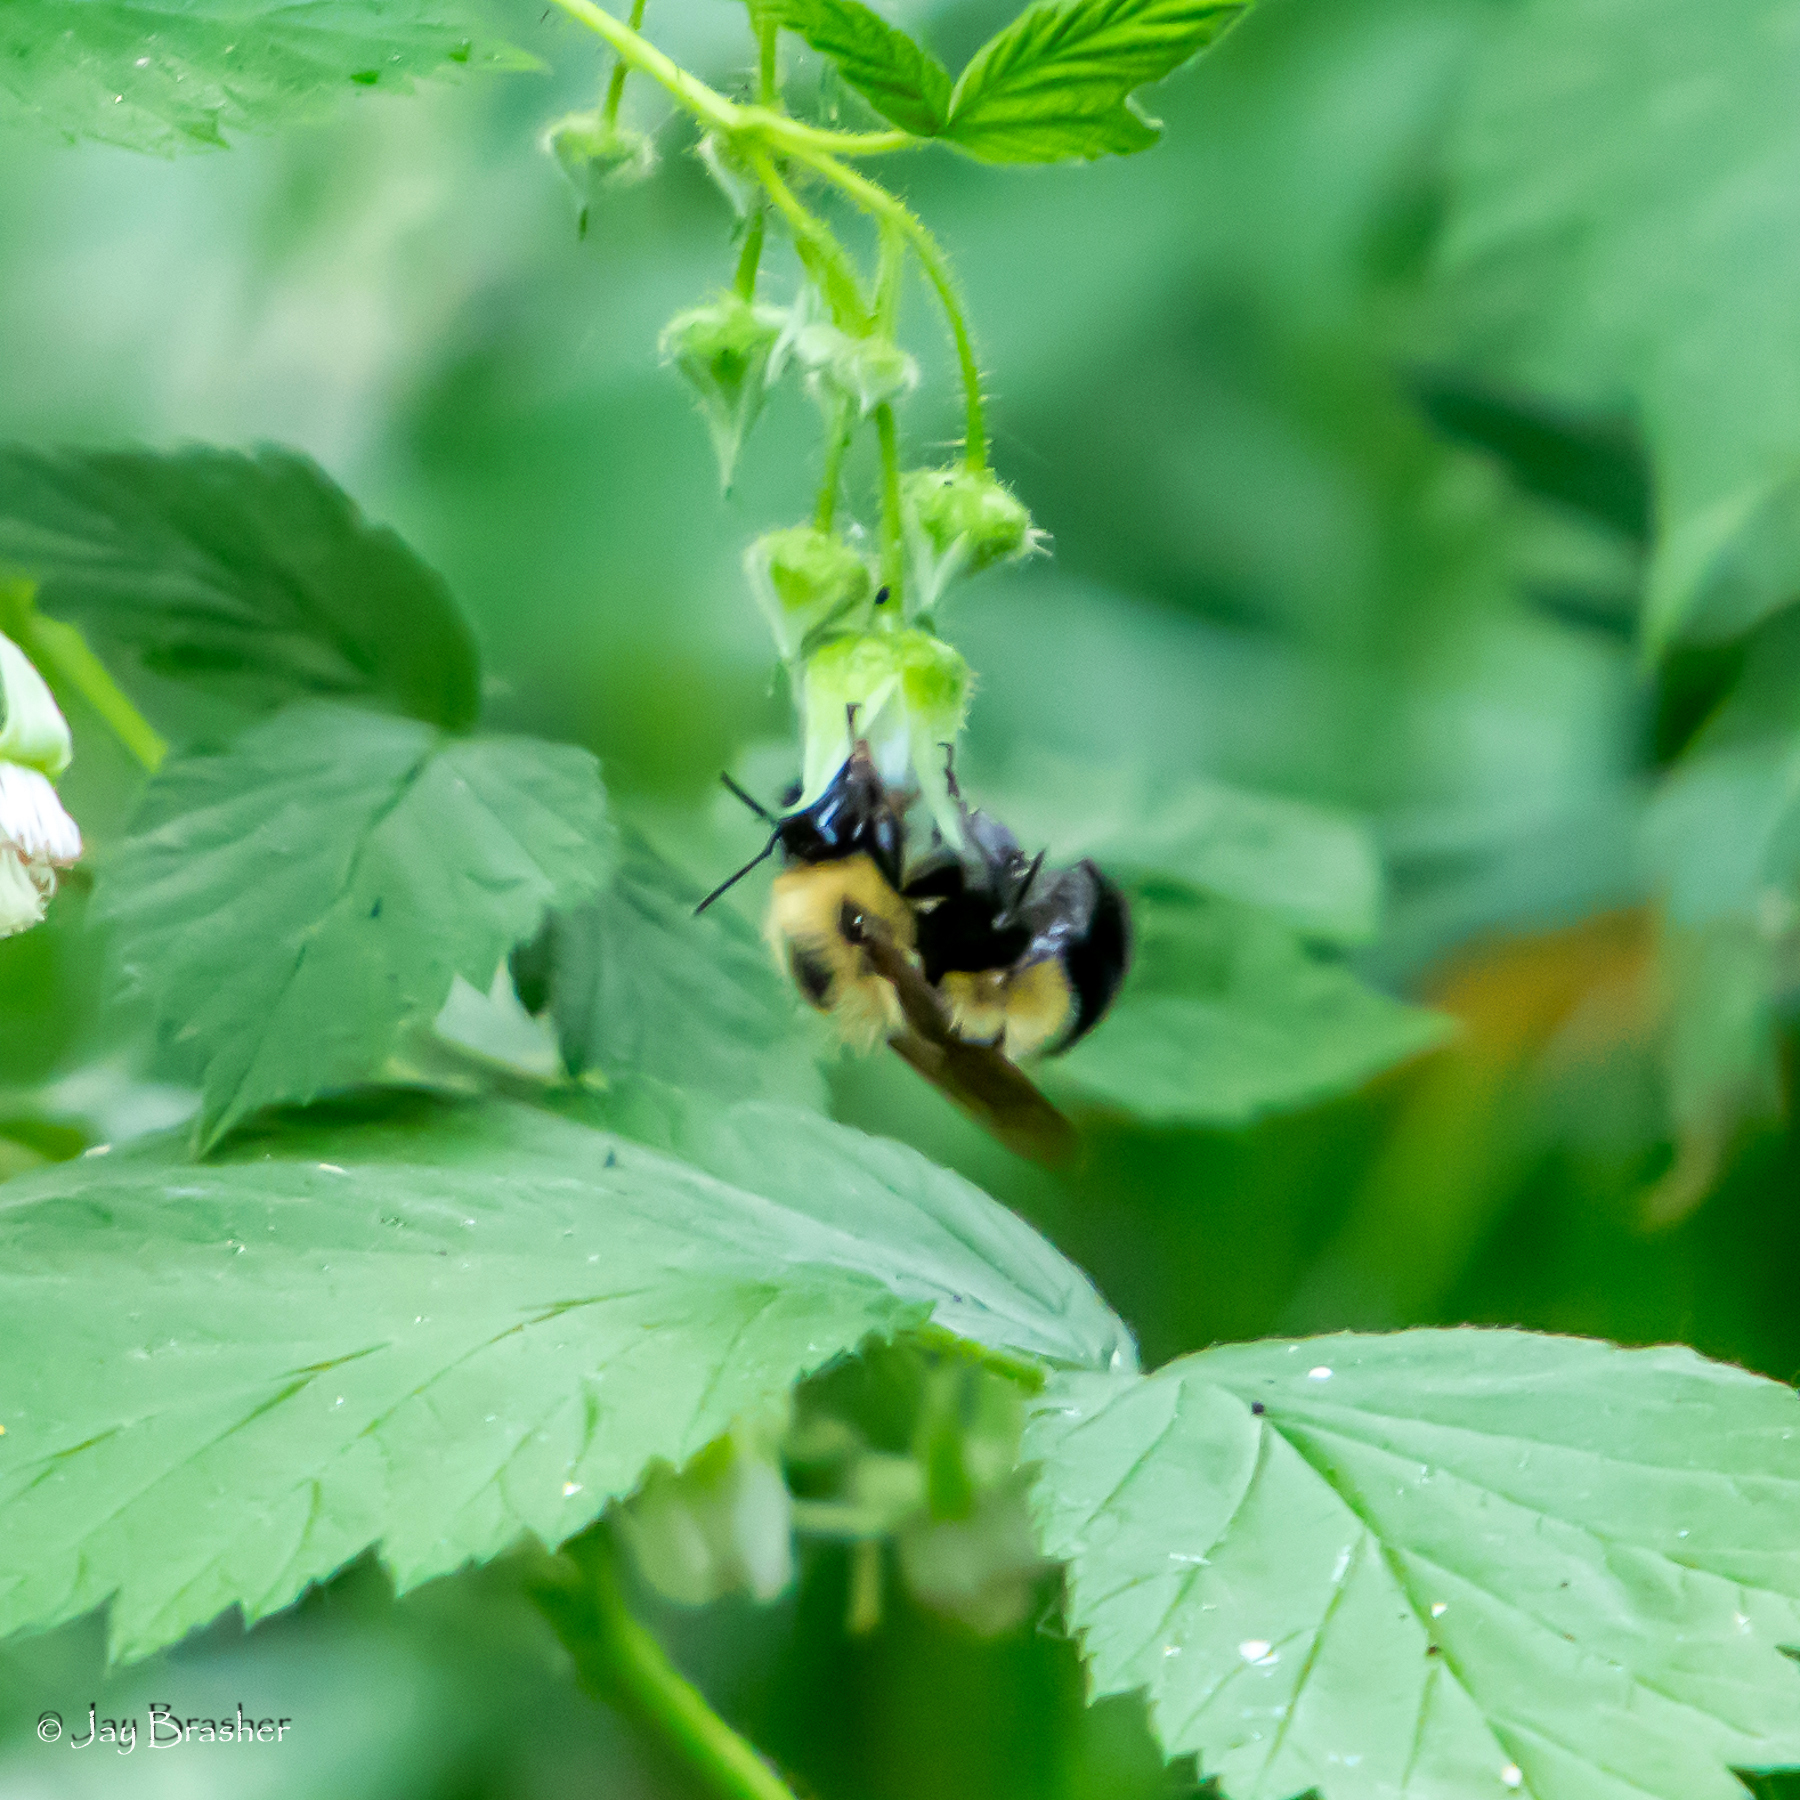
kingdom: Animalia
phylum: Arthropoda
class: Insecta
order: Hymenoptera
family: Apidae
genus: Bombus
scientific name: Bombus vagans
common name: Half-black bumble bee
